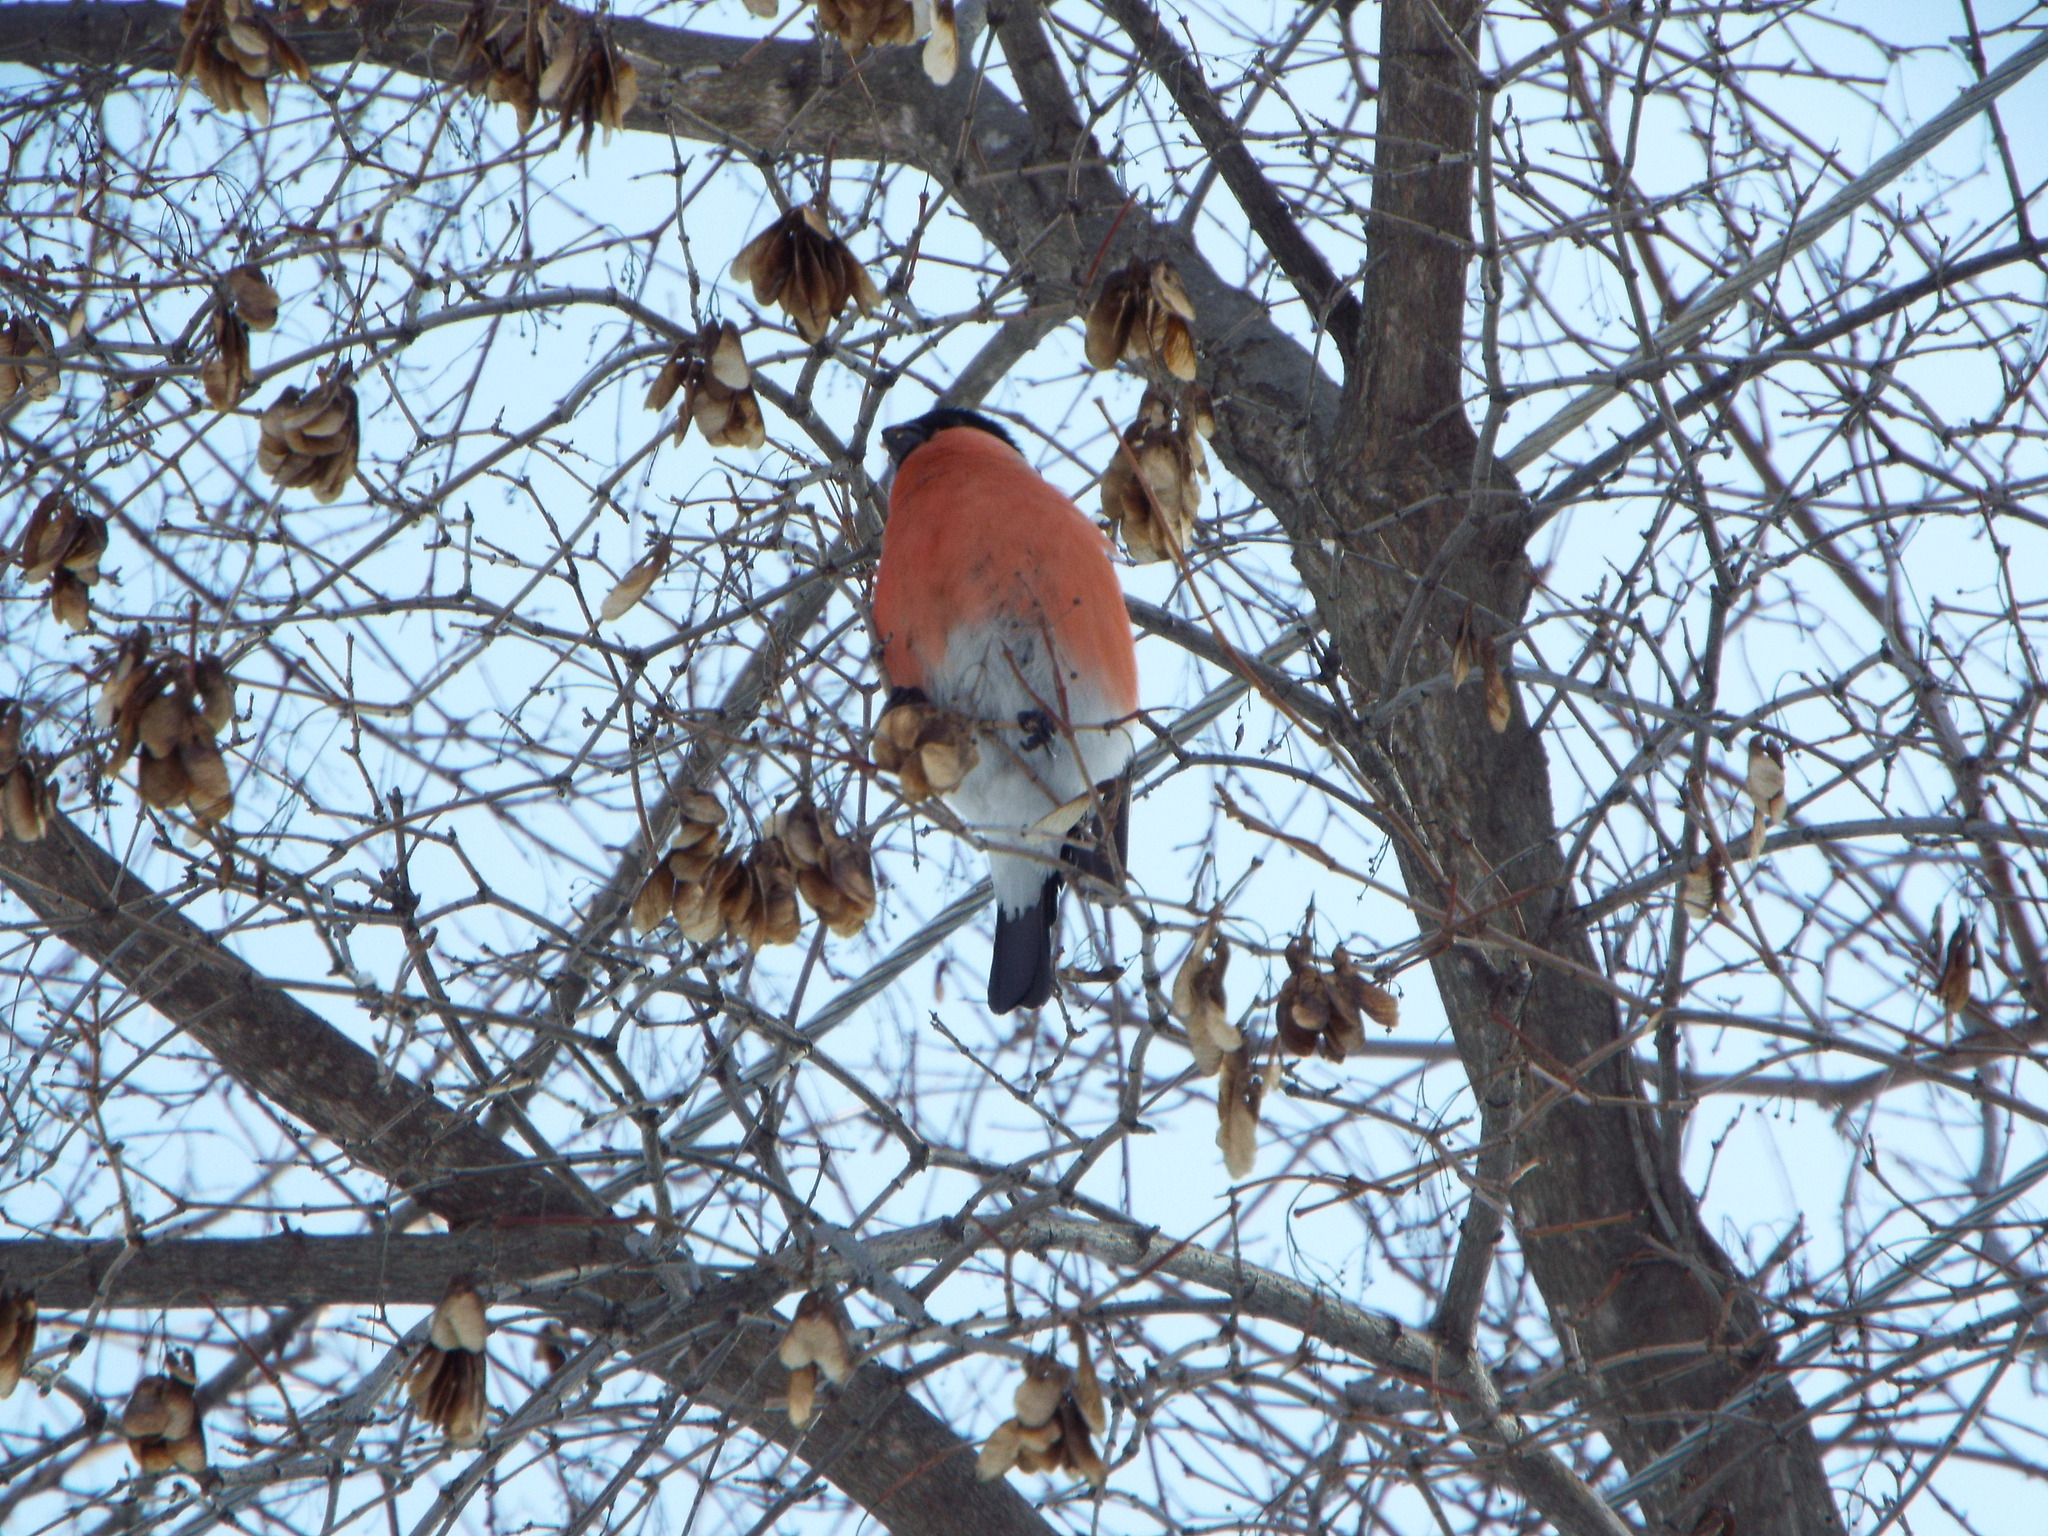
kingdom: Animalia
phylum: Chordata
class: Aves
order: Passeriformes
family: Fringillidae
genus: Pyrrhula
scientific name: Pyrrhula pyrrhula
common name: Eurasian bullfinch
